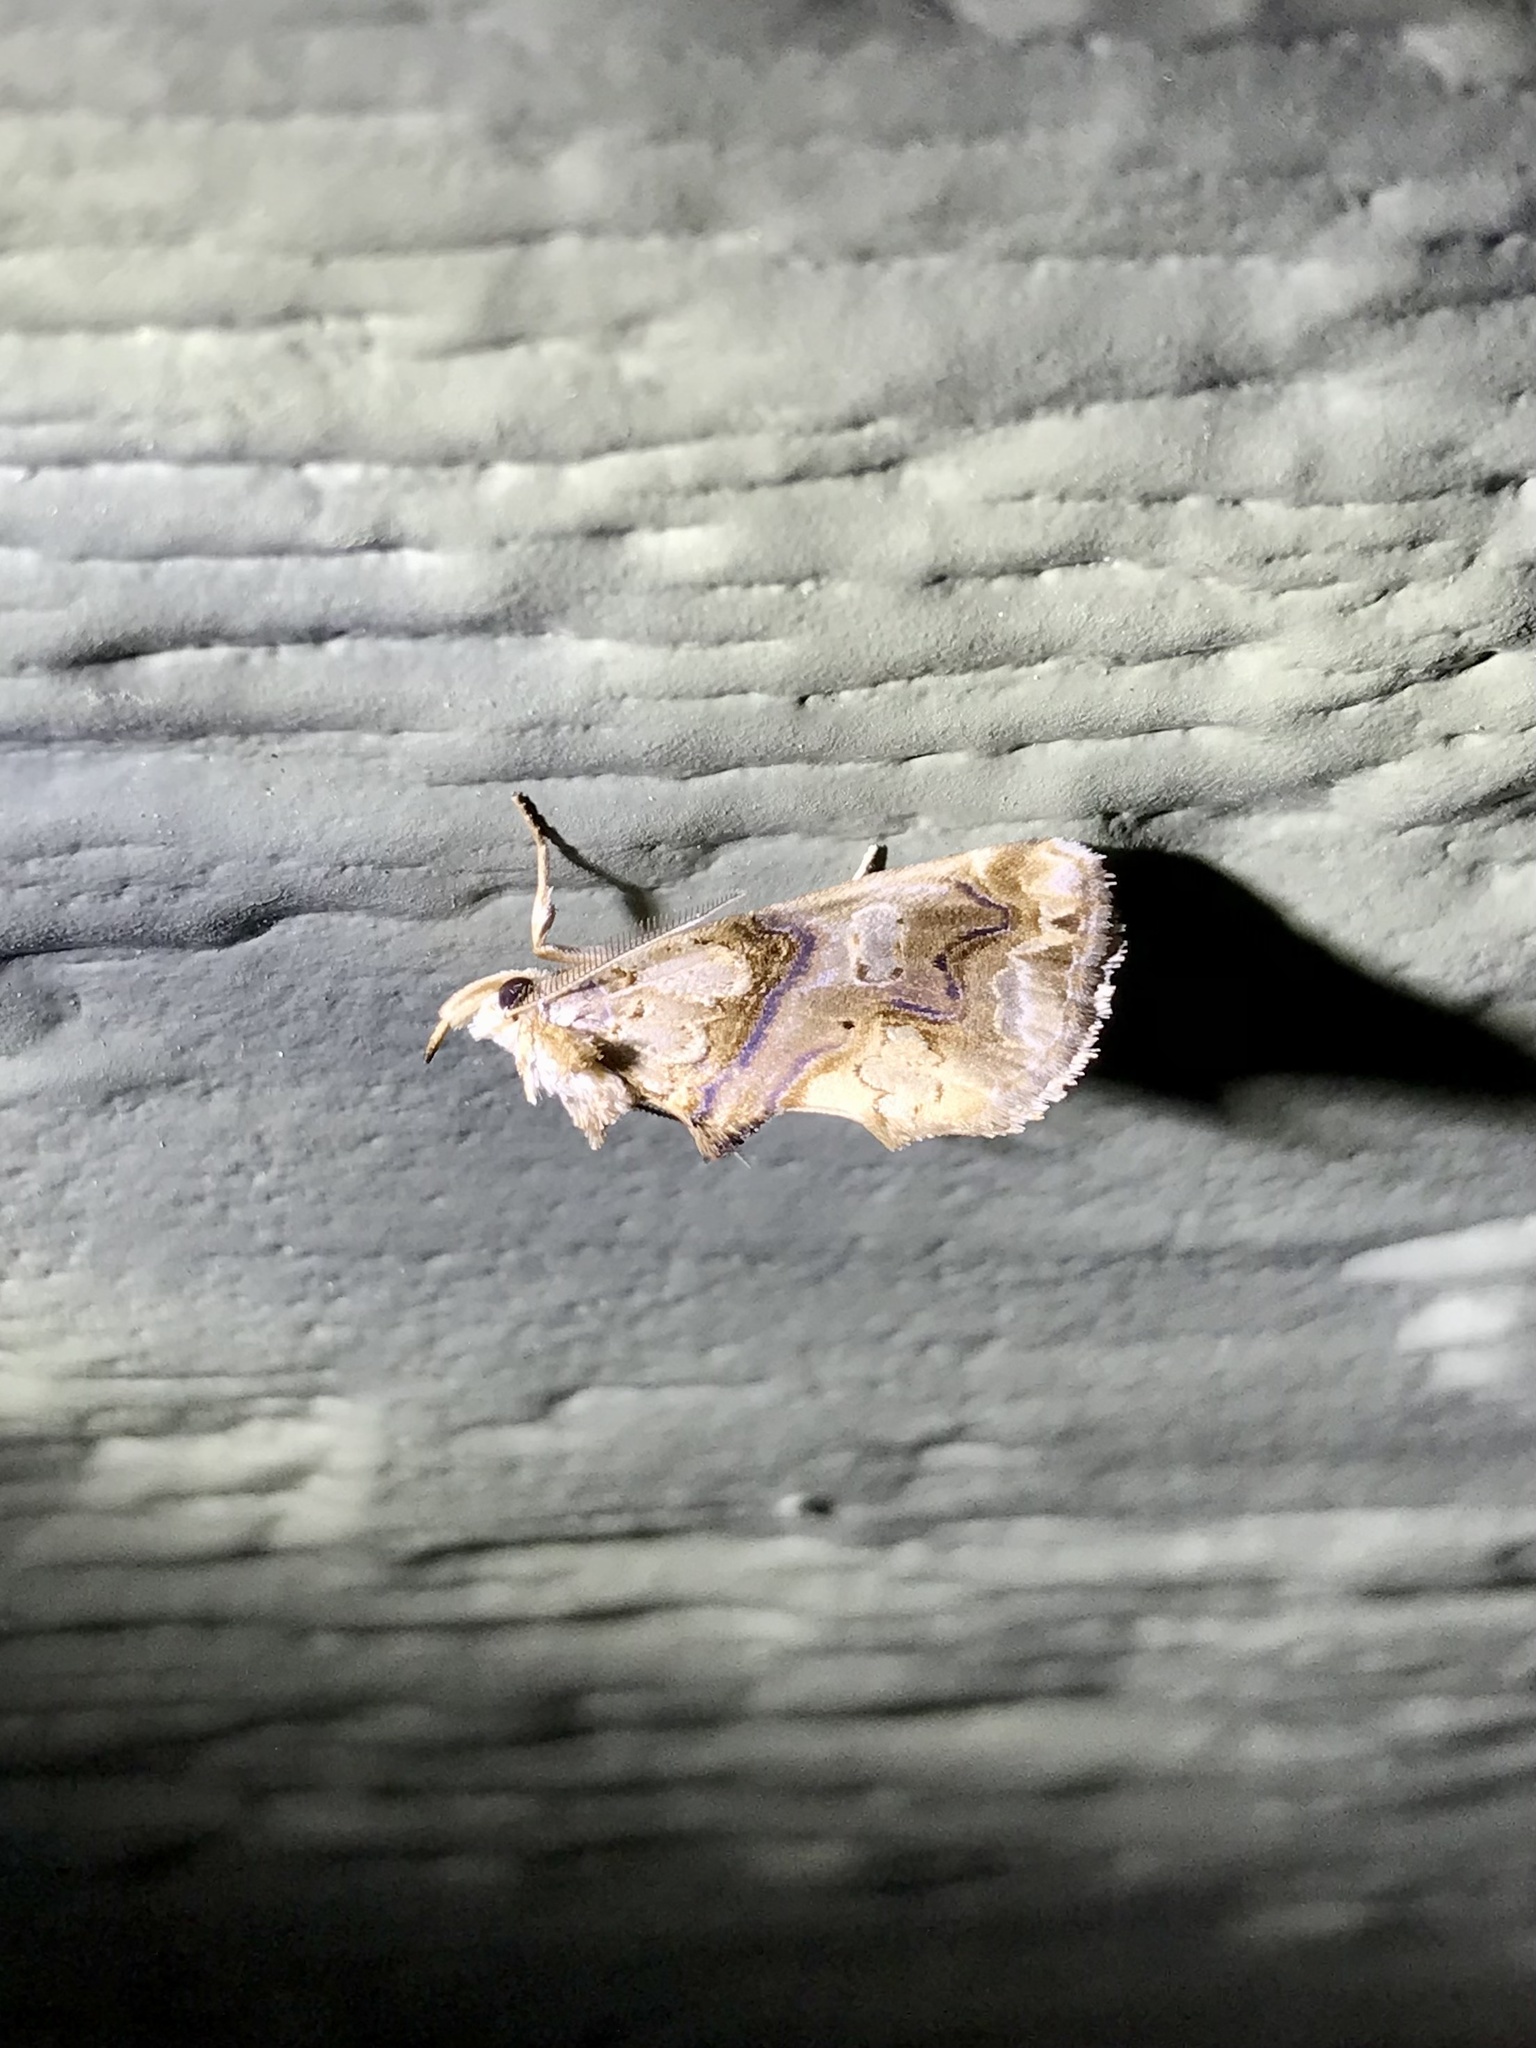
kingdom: Animalia
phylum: Arthropoda
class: Insecta
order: Lepidoptera
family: Erebidae
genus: Plusiodonta
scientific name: Plusiodonta compressipalpis
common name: Moonseed moth
